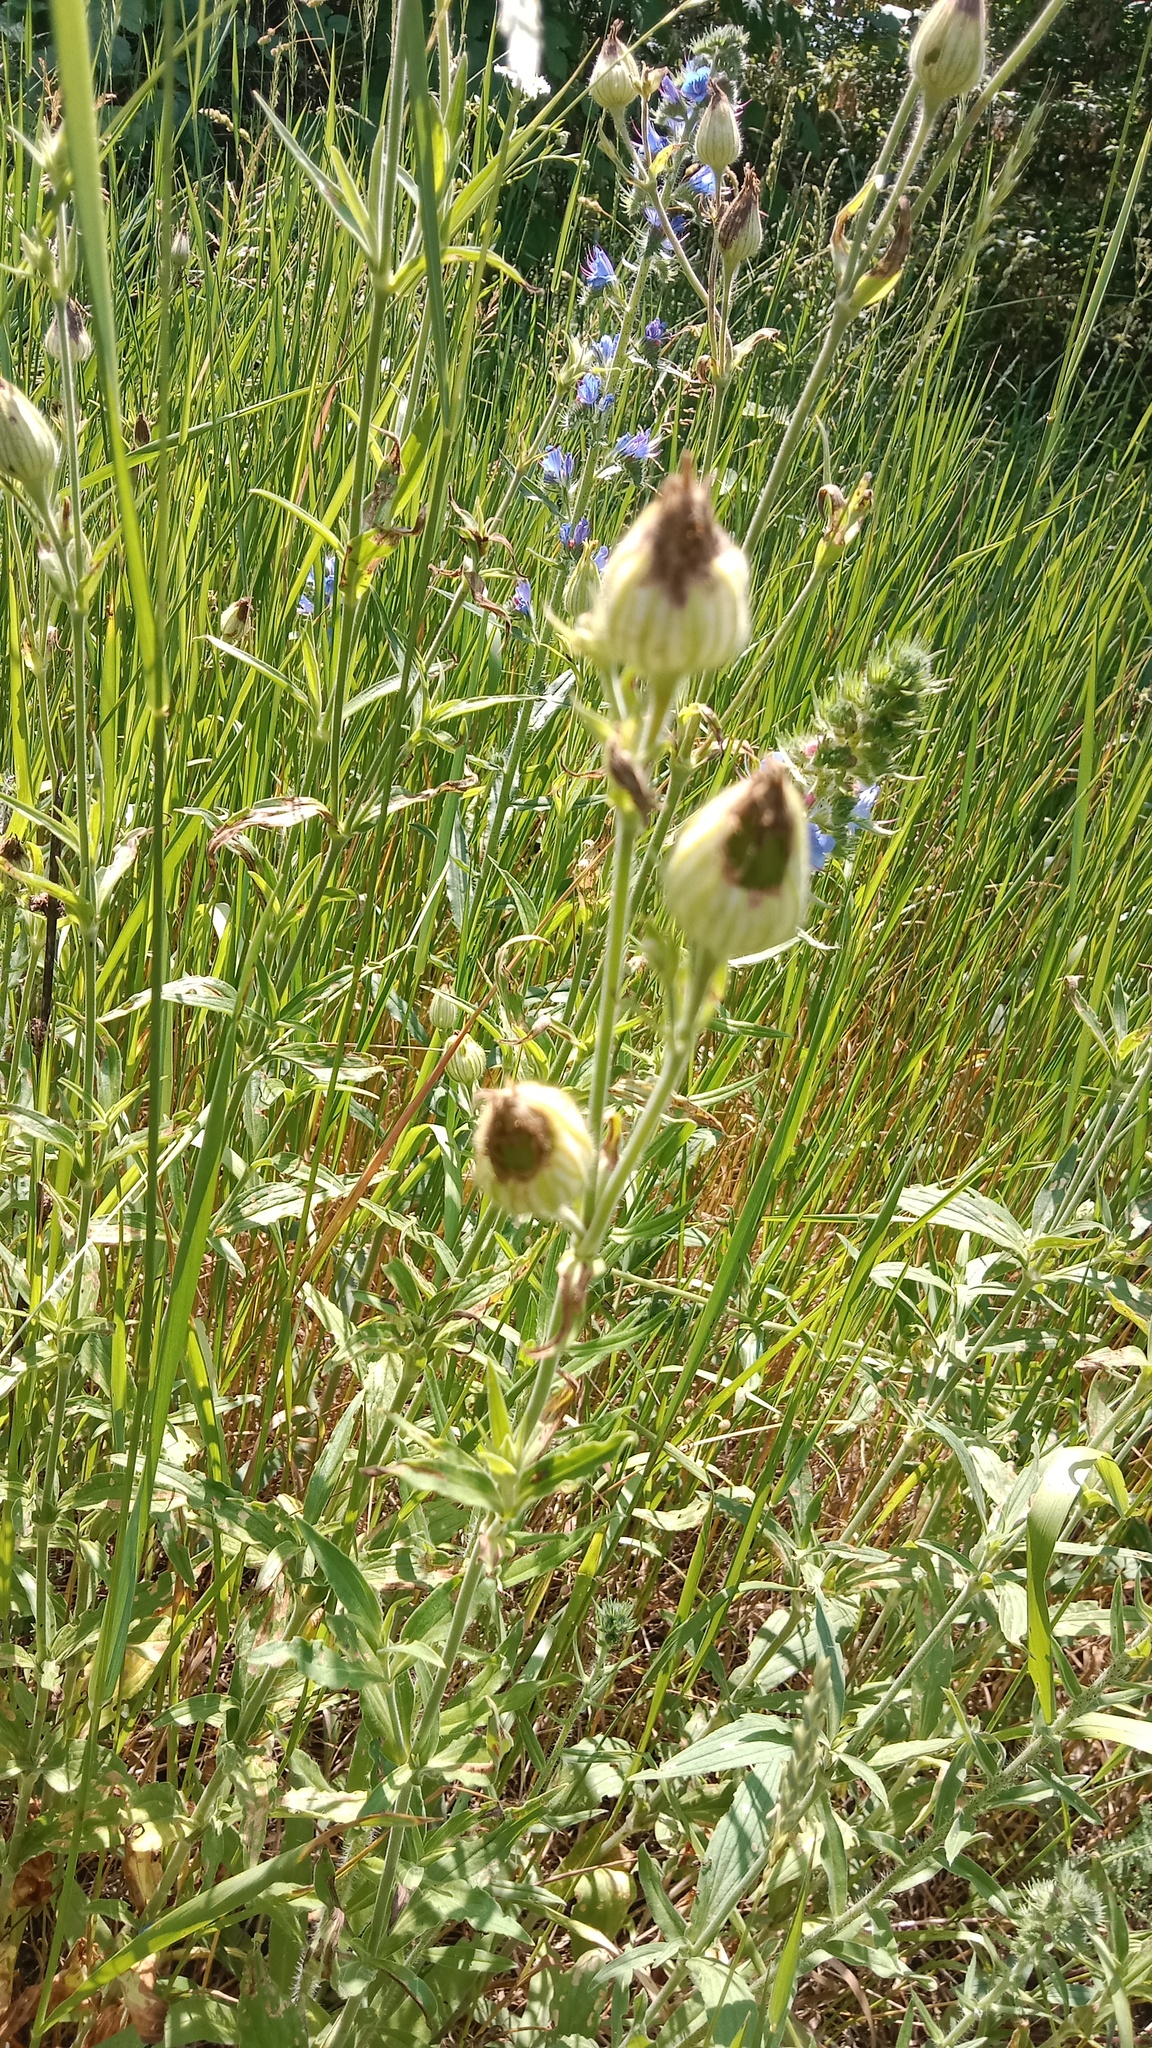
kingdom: Plantae
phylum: Tracheophyta
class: Magnoliopsida
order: Caryophyllales
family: Caryophyllaceae
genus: Silene
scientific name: Silene latifolia
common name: White campion
